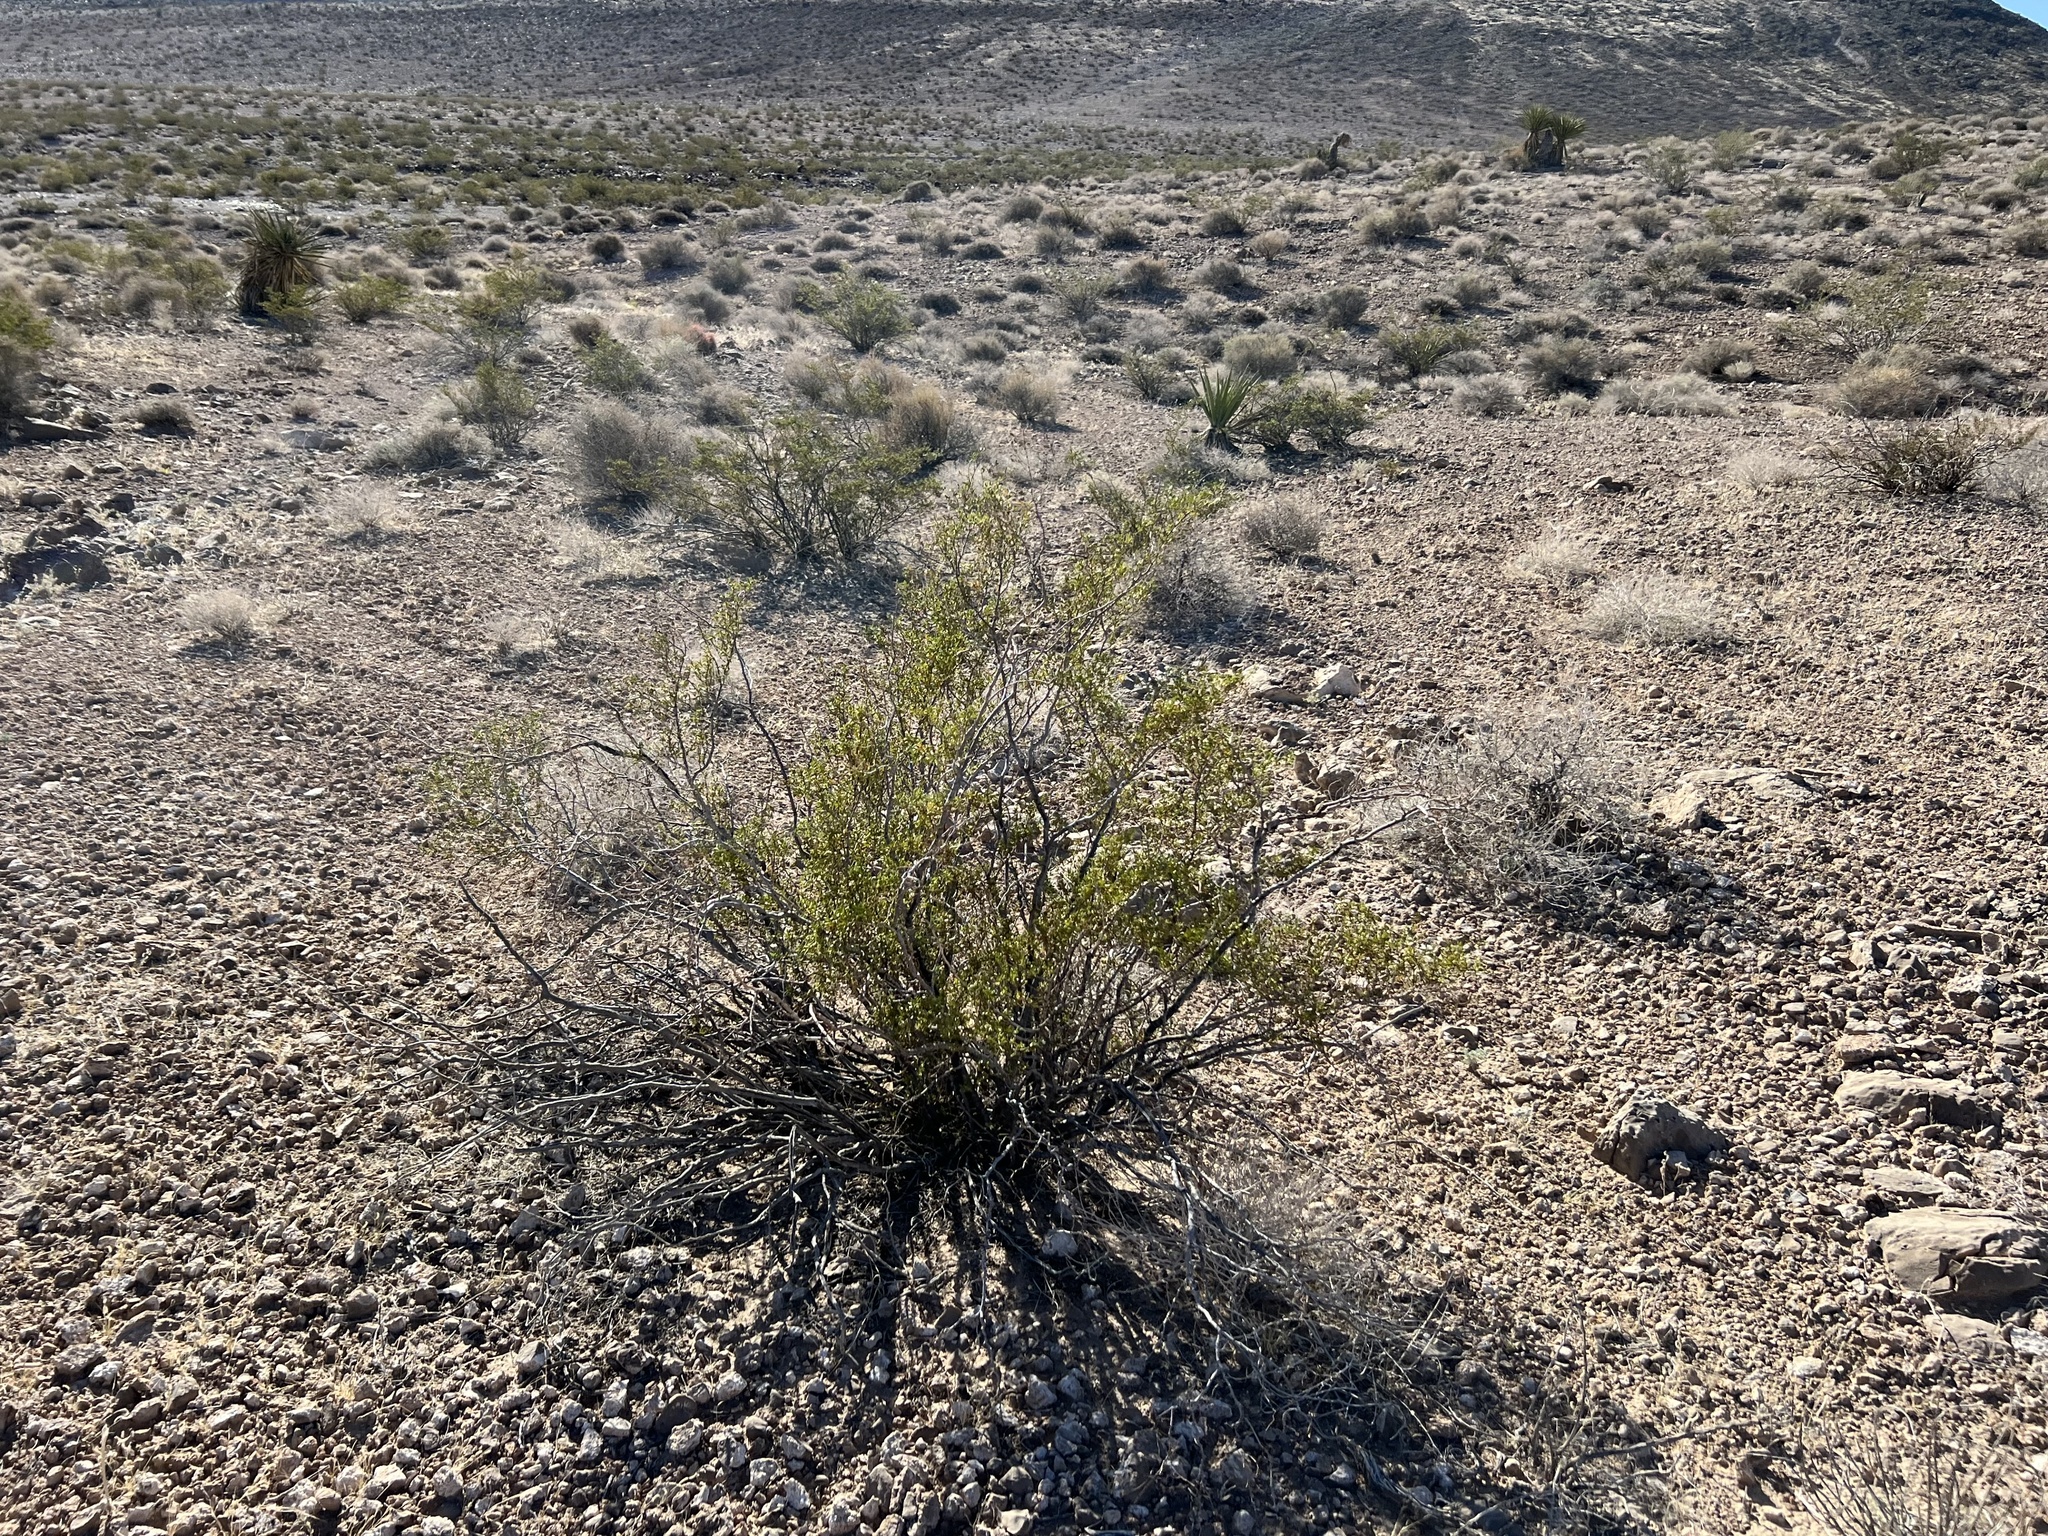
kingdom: Plantae
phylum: Tracheophyta
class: Magnoliopsida
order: Zygophyllales
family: Zygophyllaceae
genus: Larrea
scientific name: Larrea tridentata
